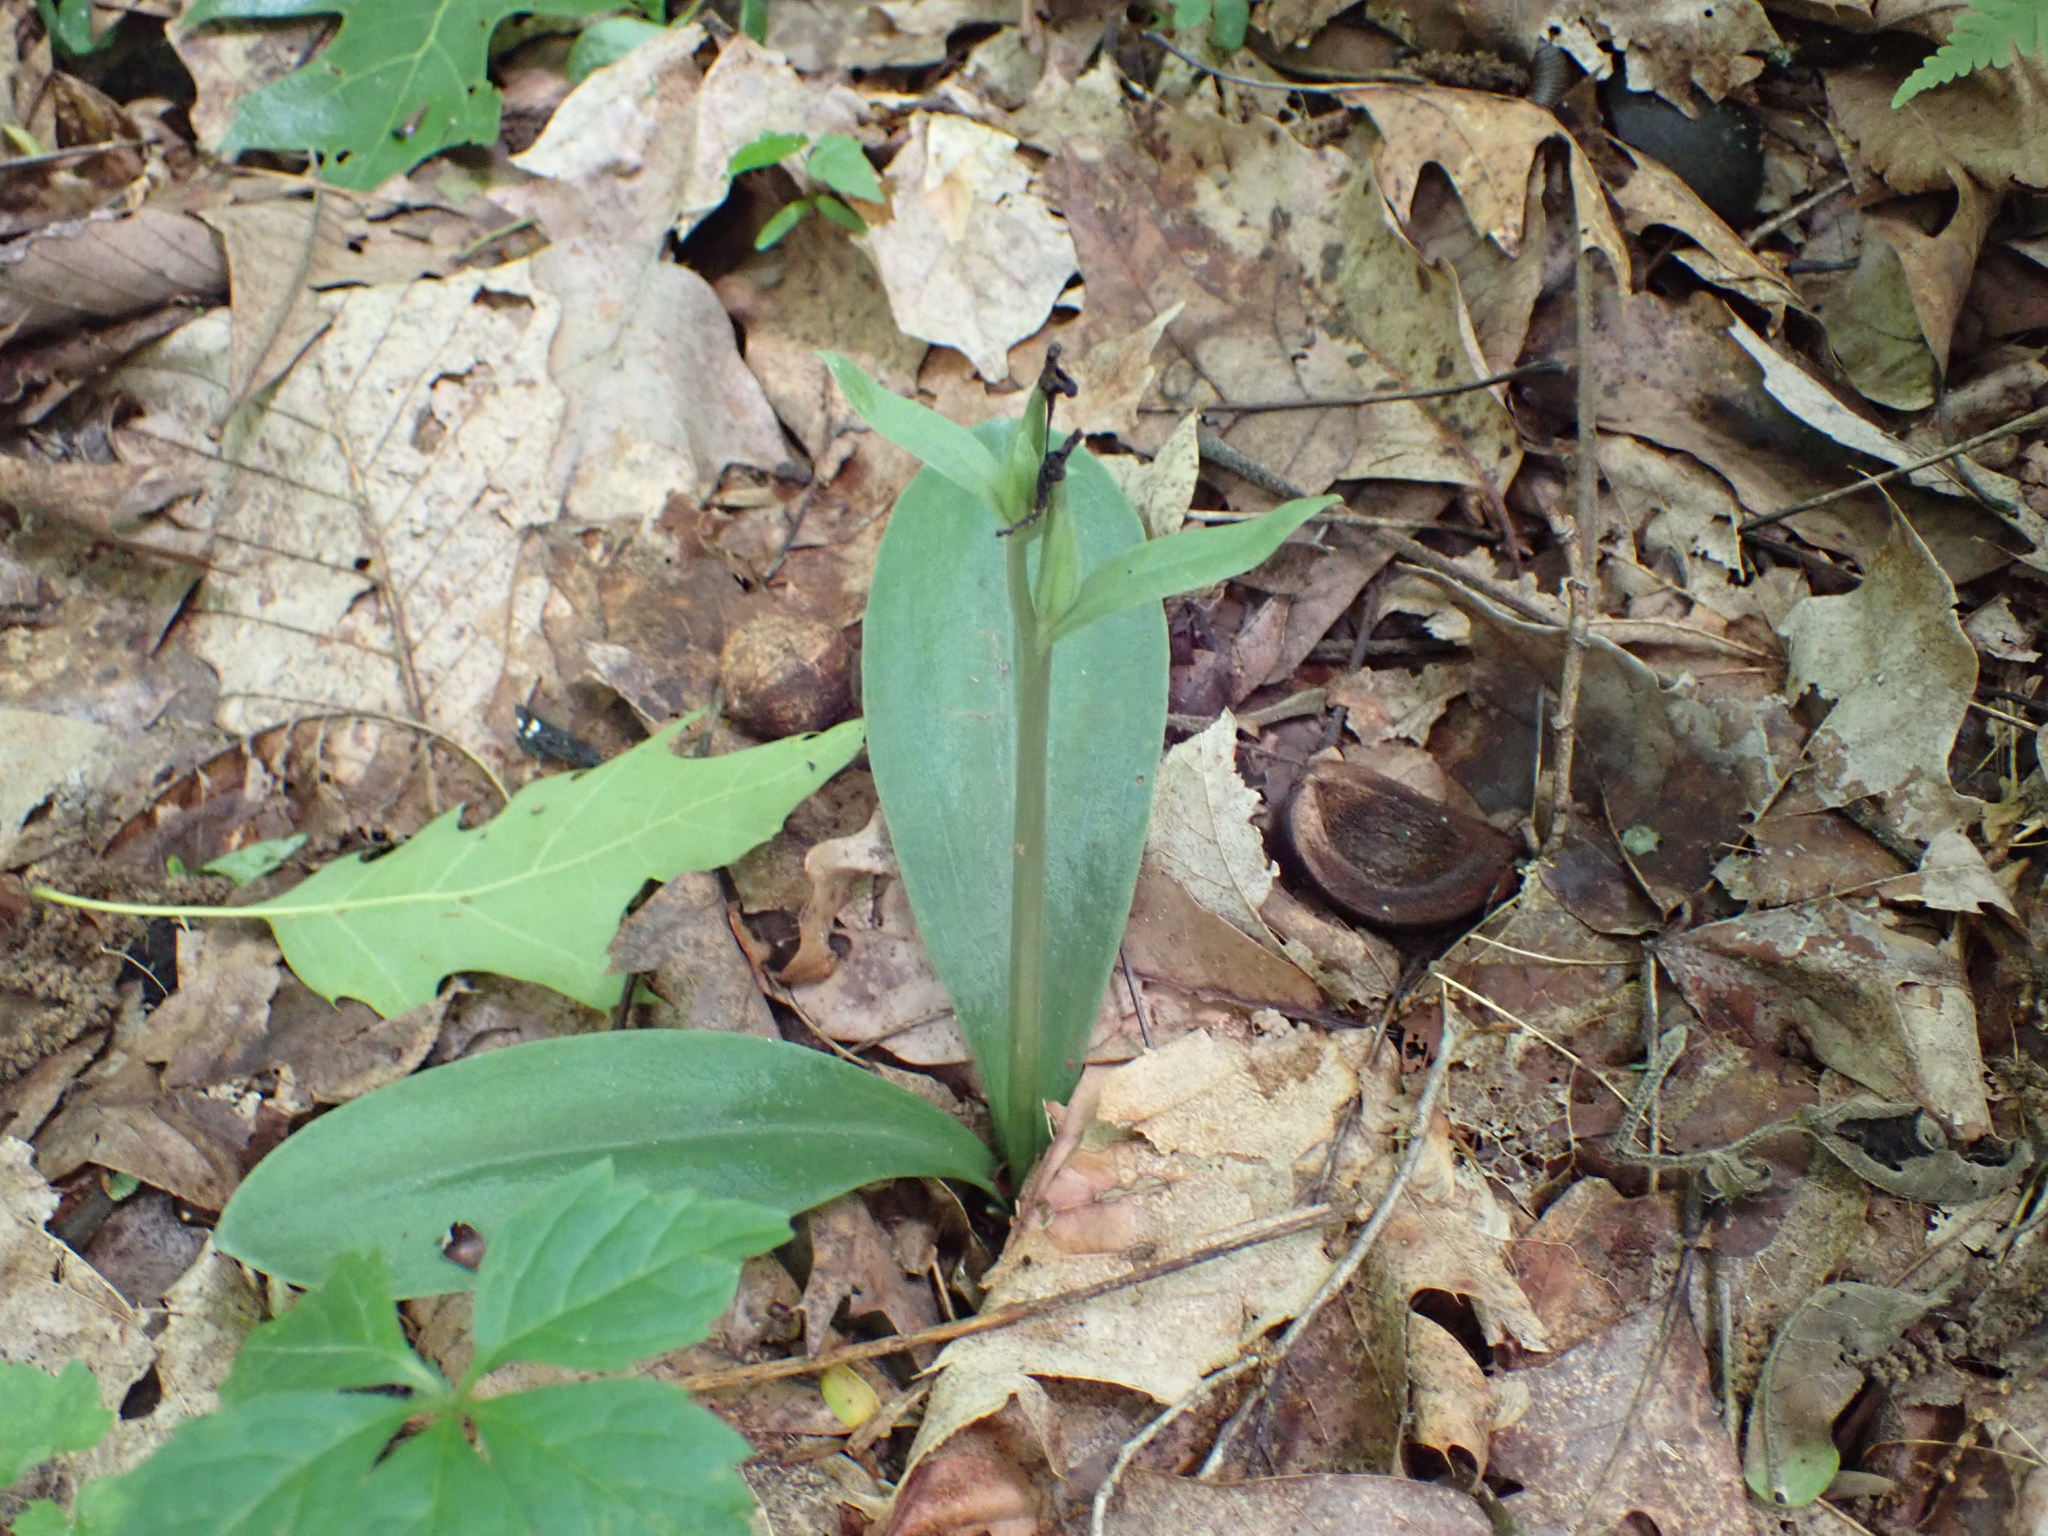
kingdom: Plantae
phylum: Tracheophyta
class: Liliopsida
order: Asparagales
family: Orchidaceae
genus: Galearis
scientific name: Galearis spectabilis
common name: Purple-hooded orchis
